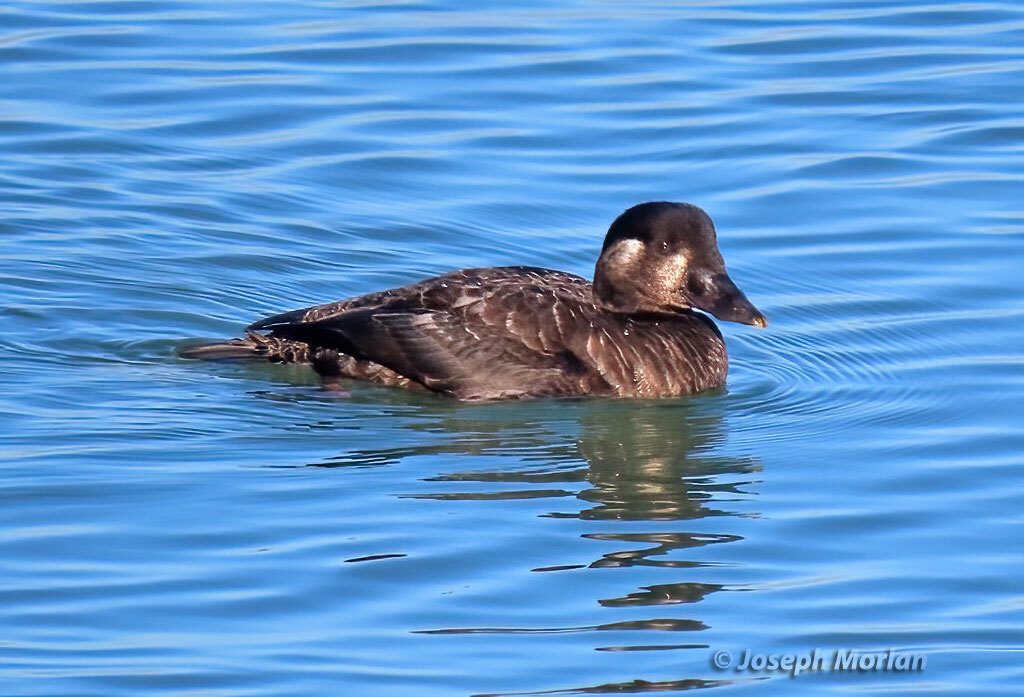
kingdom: Animalia
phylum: Chordata
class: Aves
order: Anseriformes
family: Anatidae
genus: Melanitta
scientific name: Melanitta perspicillata
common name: Surf scoter
